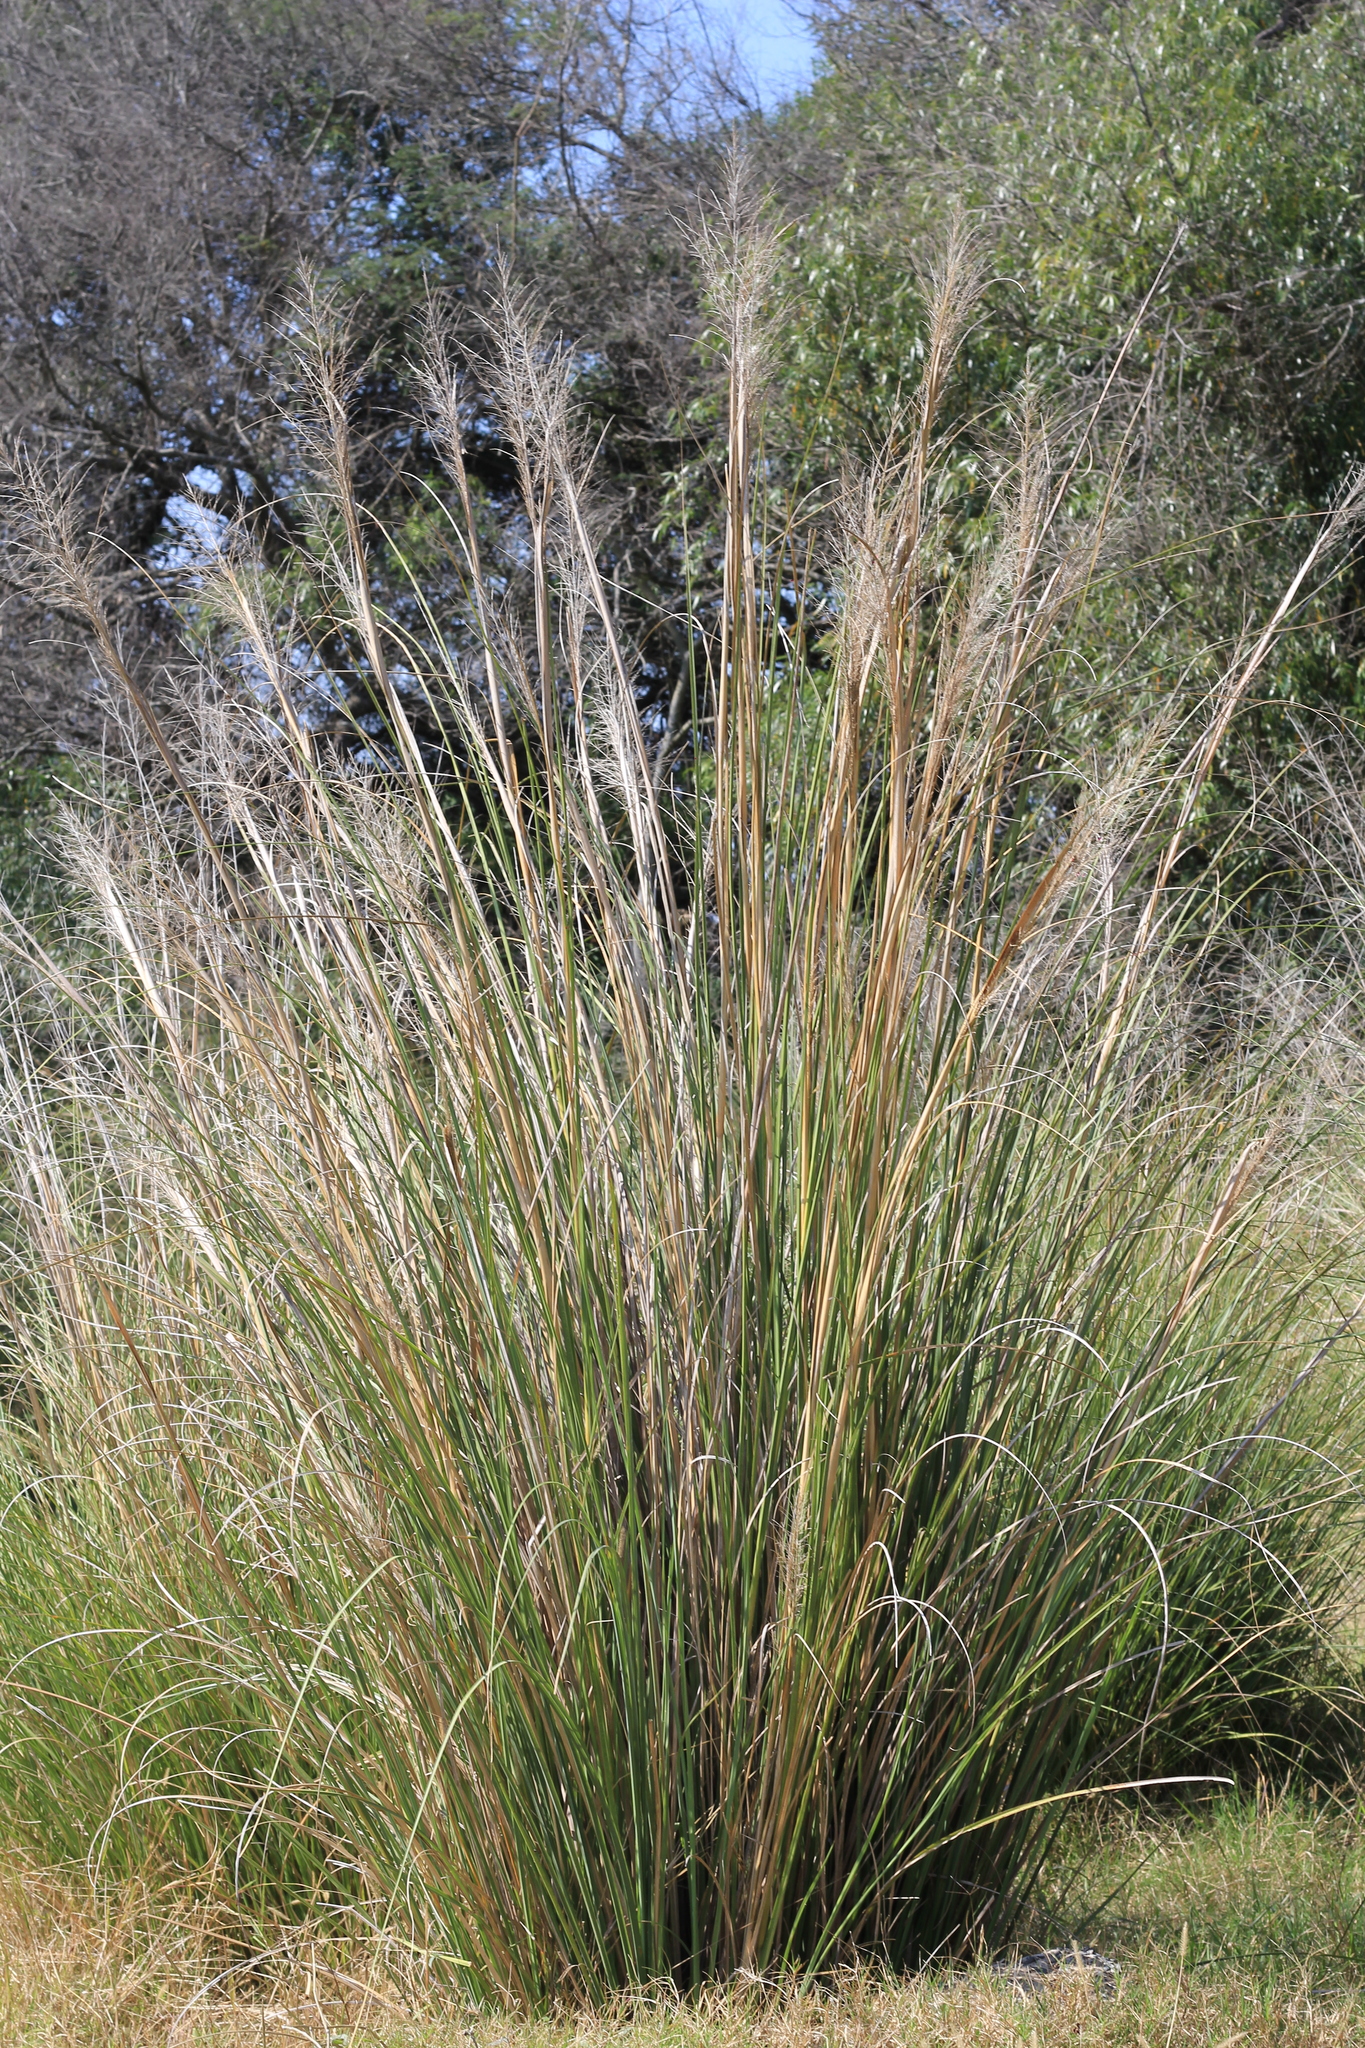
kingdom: Plantae
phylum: Tracheophyta
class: Liliopsida
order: Poales
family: Poaceae
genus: Coleataenia
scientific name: Coleataenia prionitis
